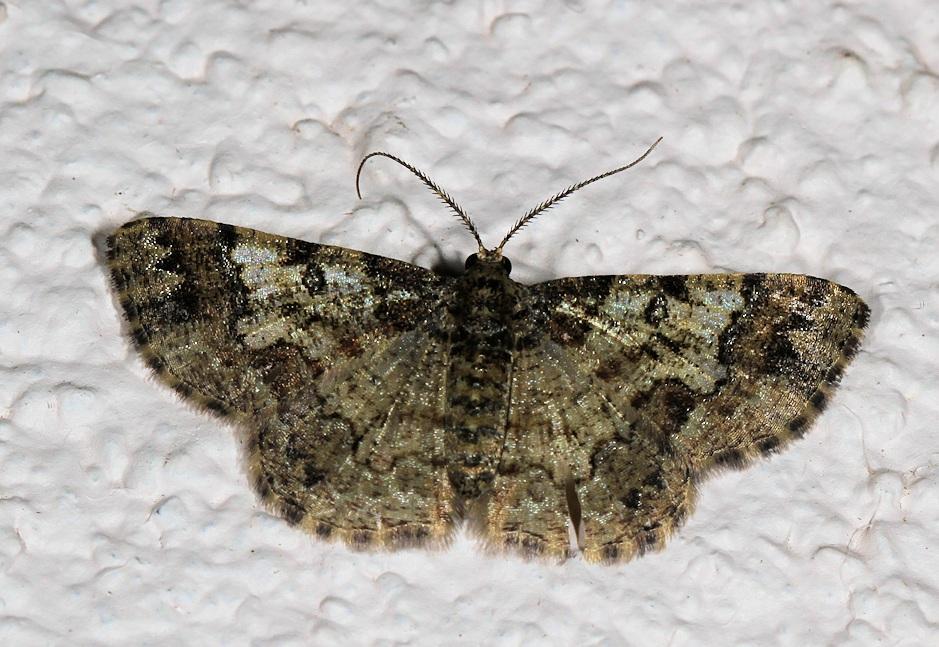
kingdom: Animalia
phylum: Arthropoda
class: Insecta
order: Lepidoptera
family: Geometridae
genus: Zamarada
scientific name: Zamarada deceptrix
